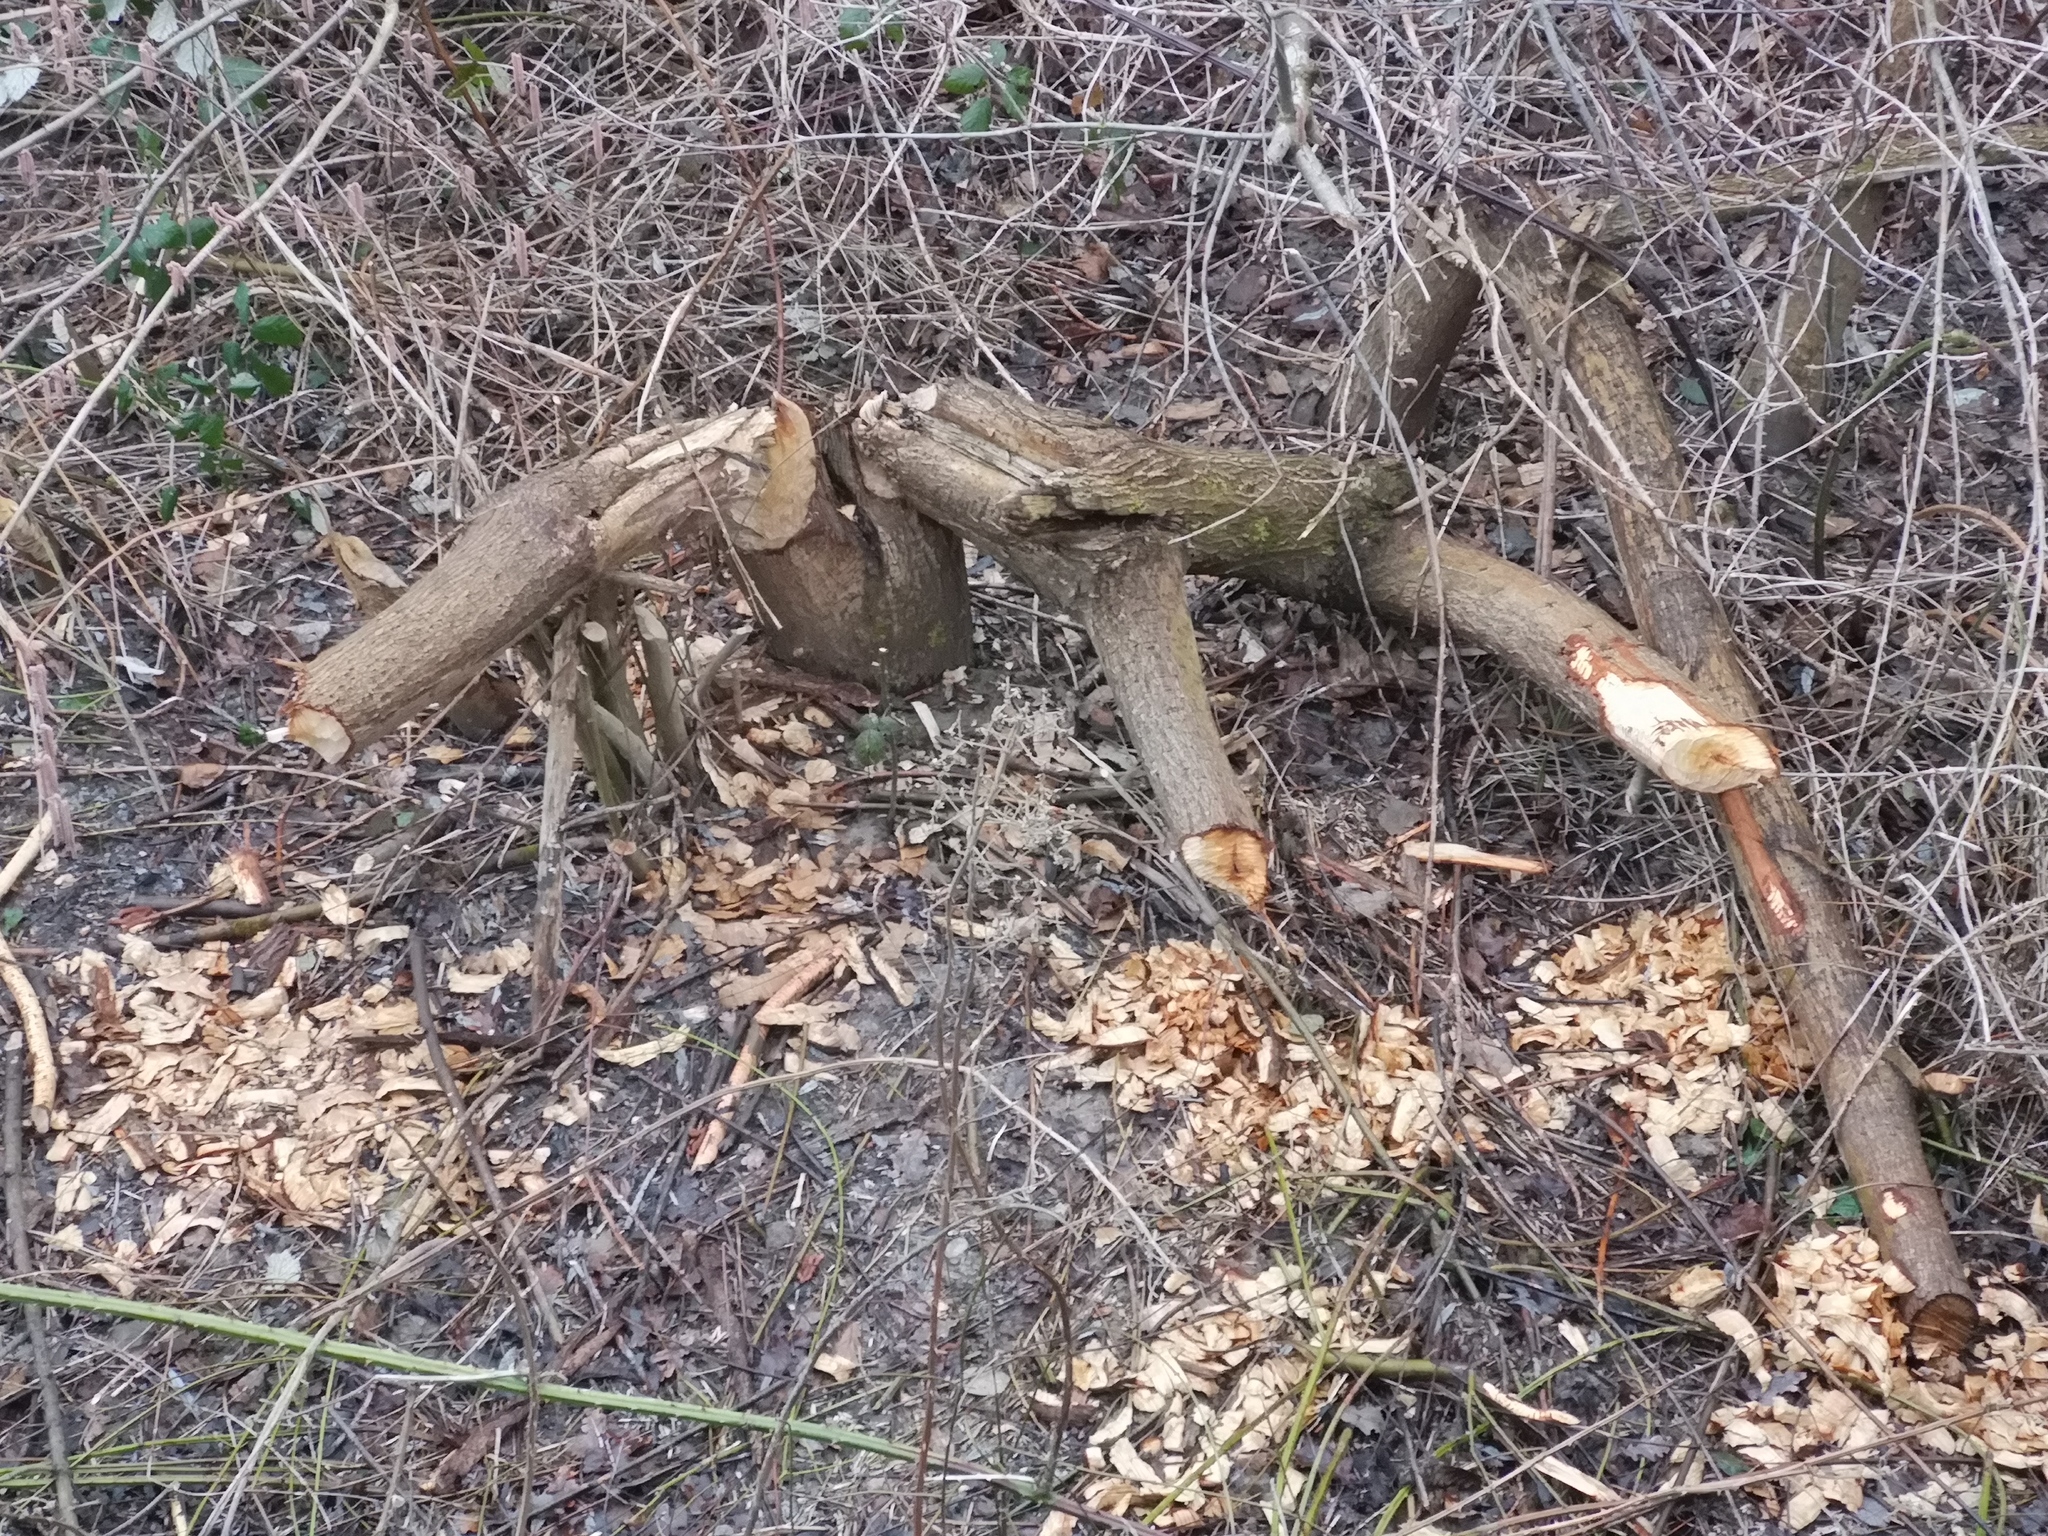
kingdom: Animalia
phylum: Chordata
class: Mammalia
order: Rodentia
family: Castoridae
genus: Castor
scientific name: Castor fiber
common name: Eurasian beaver
